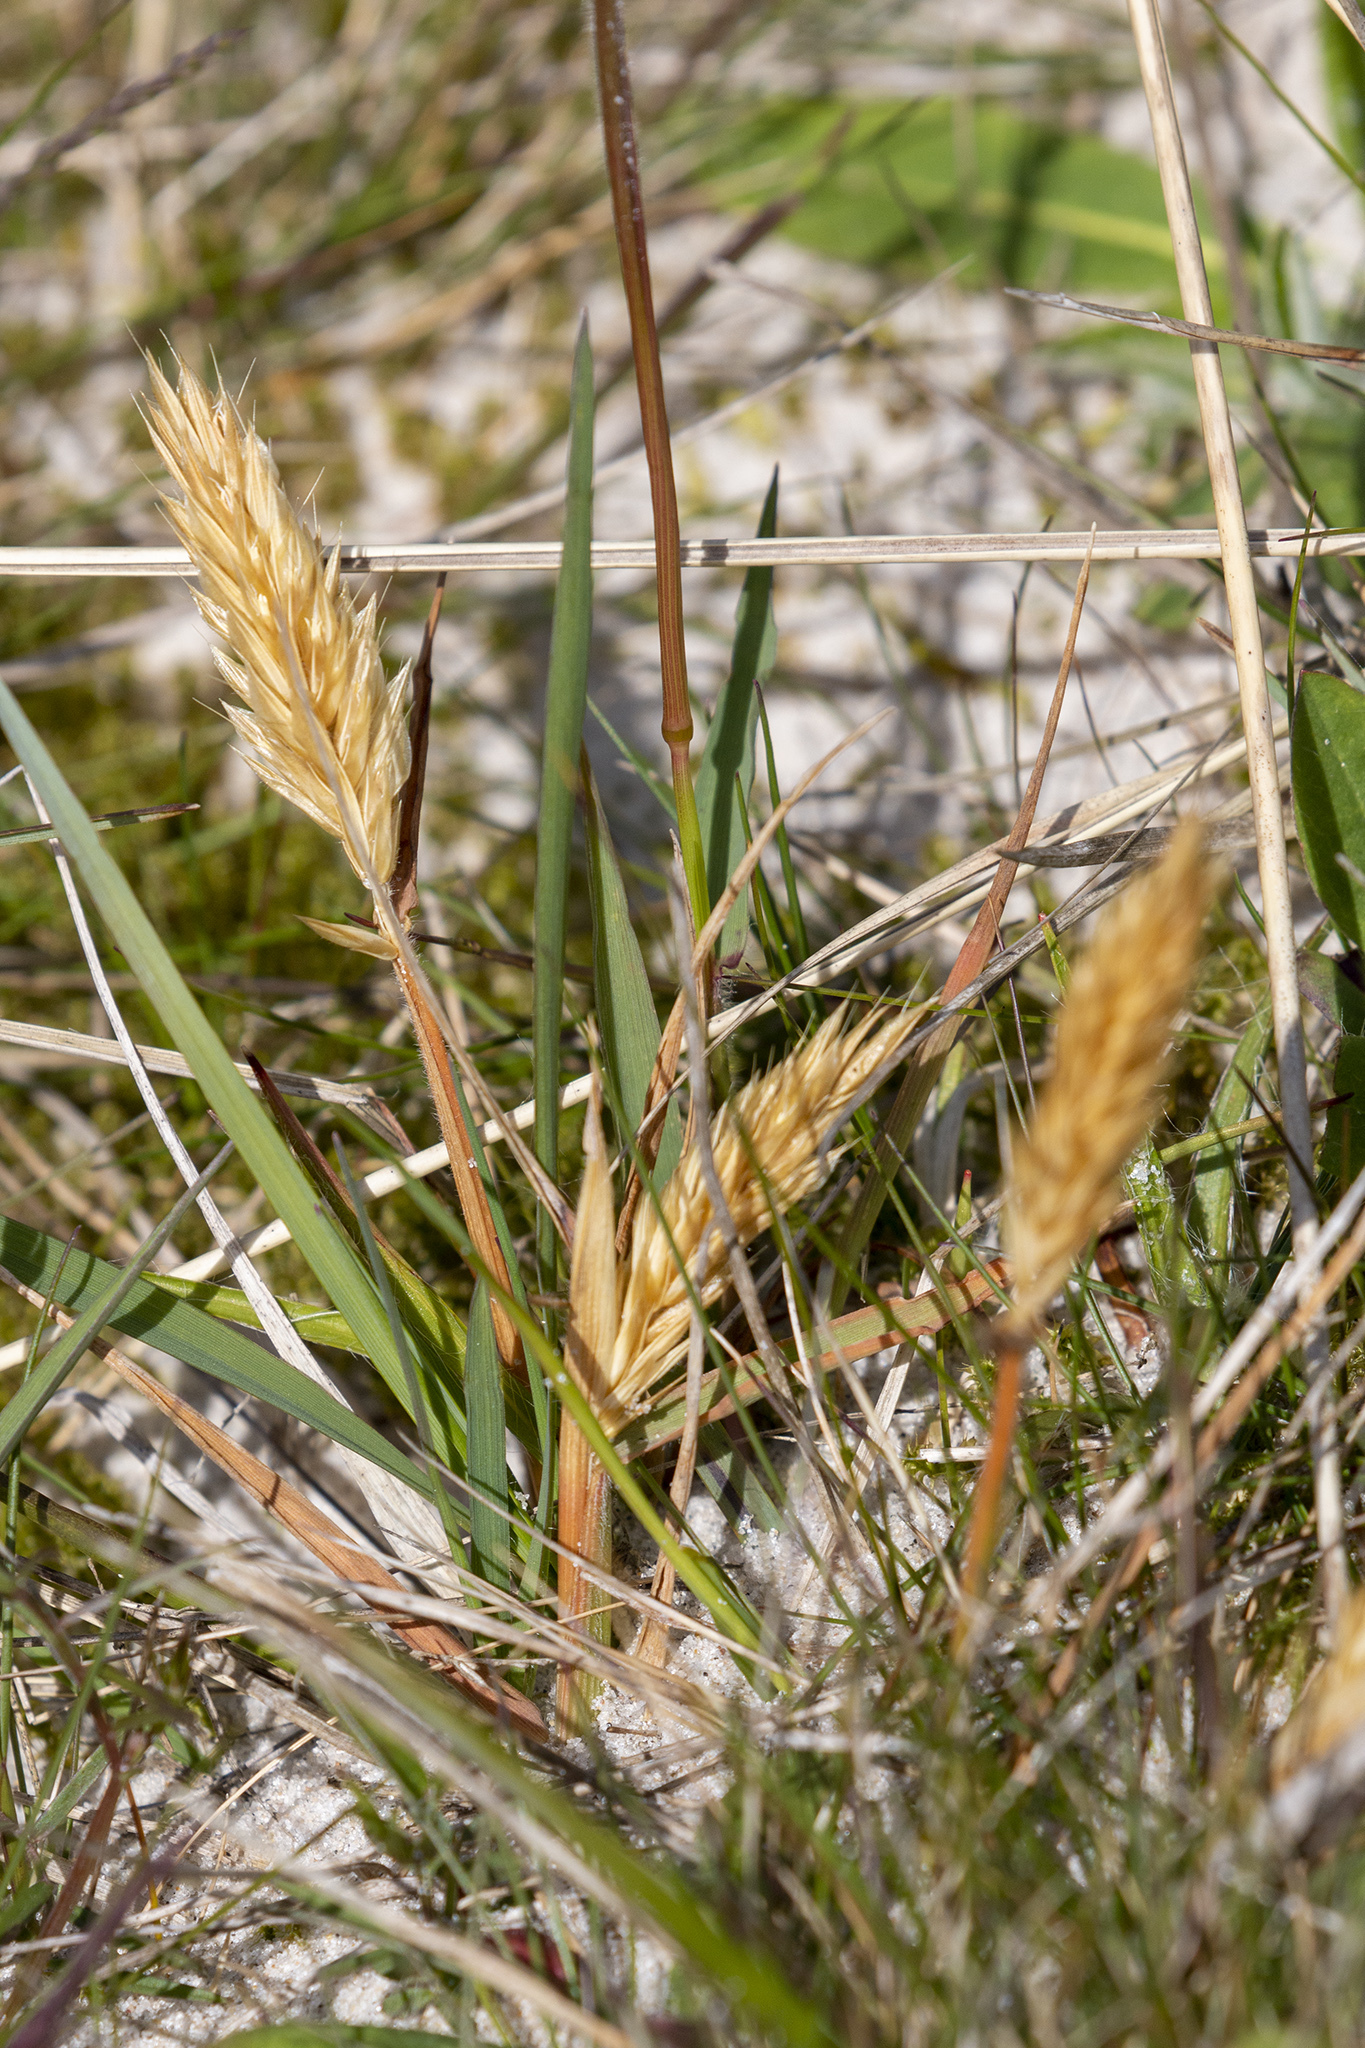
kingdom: Plantae
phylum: Tracheophyta
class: Liliopsida
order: Poales
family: Poaceae
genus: Anthoxanthum
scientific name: Anthoxanthum odoratum
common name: Sweet vernalgrass
